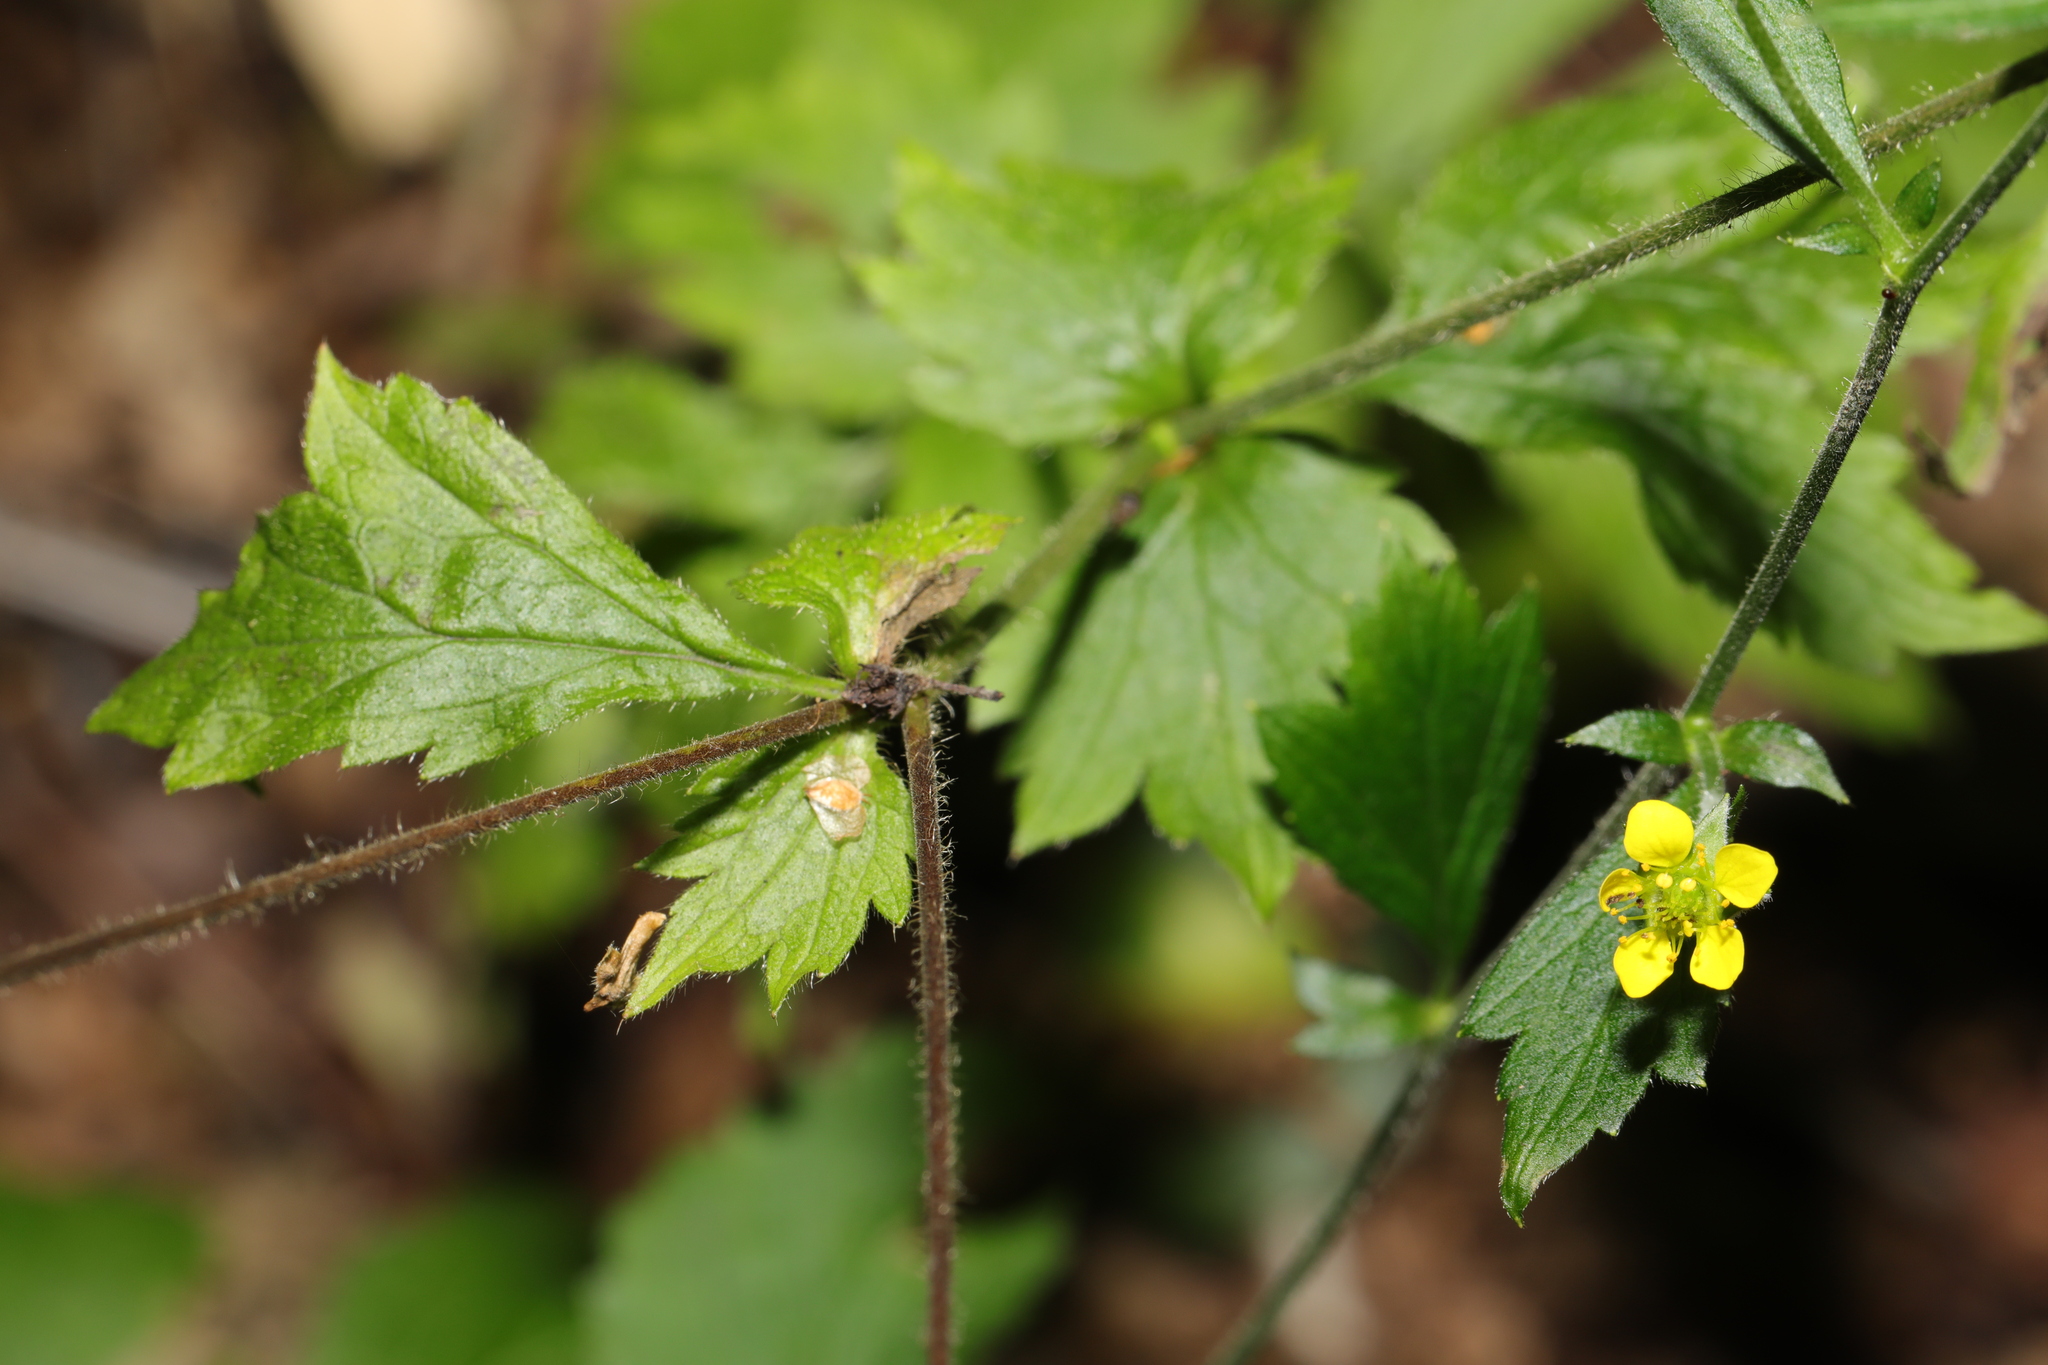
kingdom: Plantae
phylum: Tracheophyta
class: Magnoliopsida
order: Rosales
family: Rosaceae
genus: Geum
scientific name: Geum urbanum
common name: Wood avens
